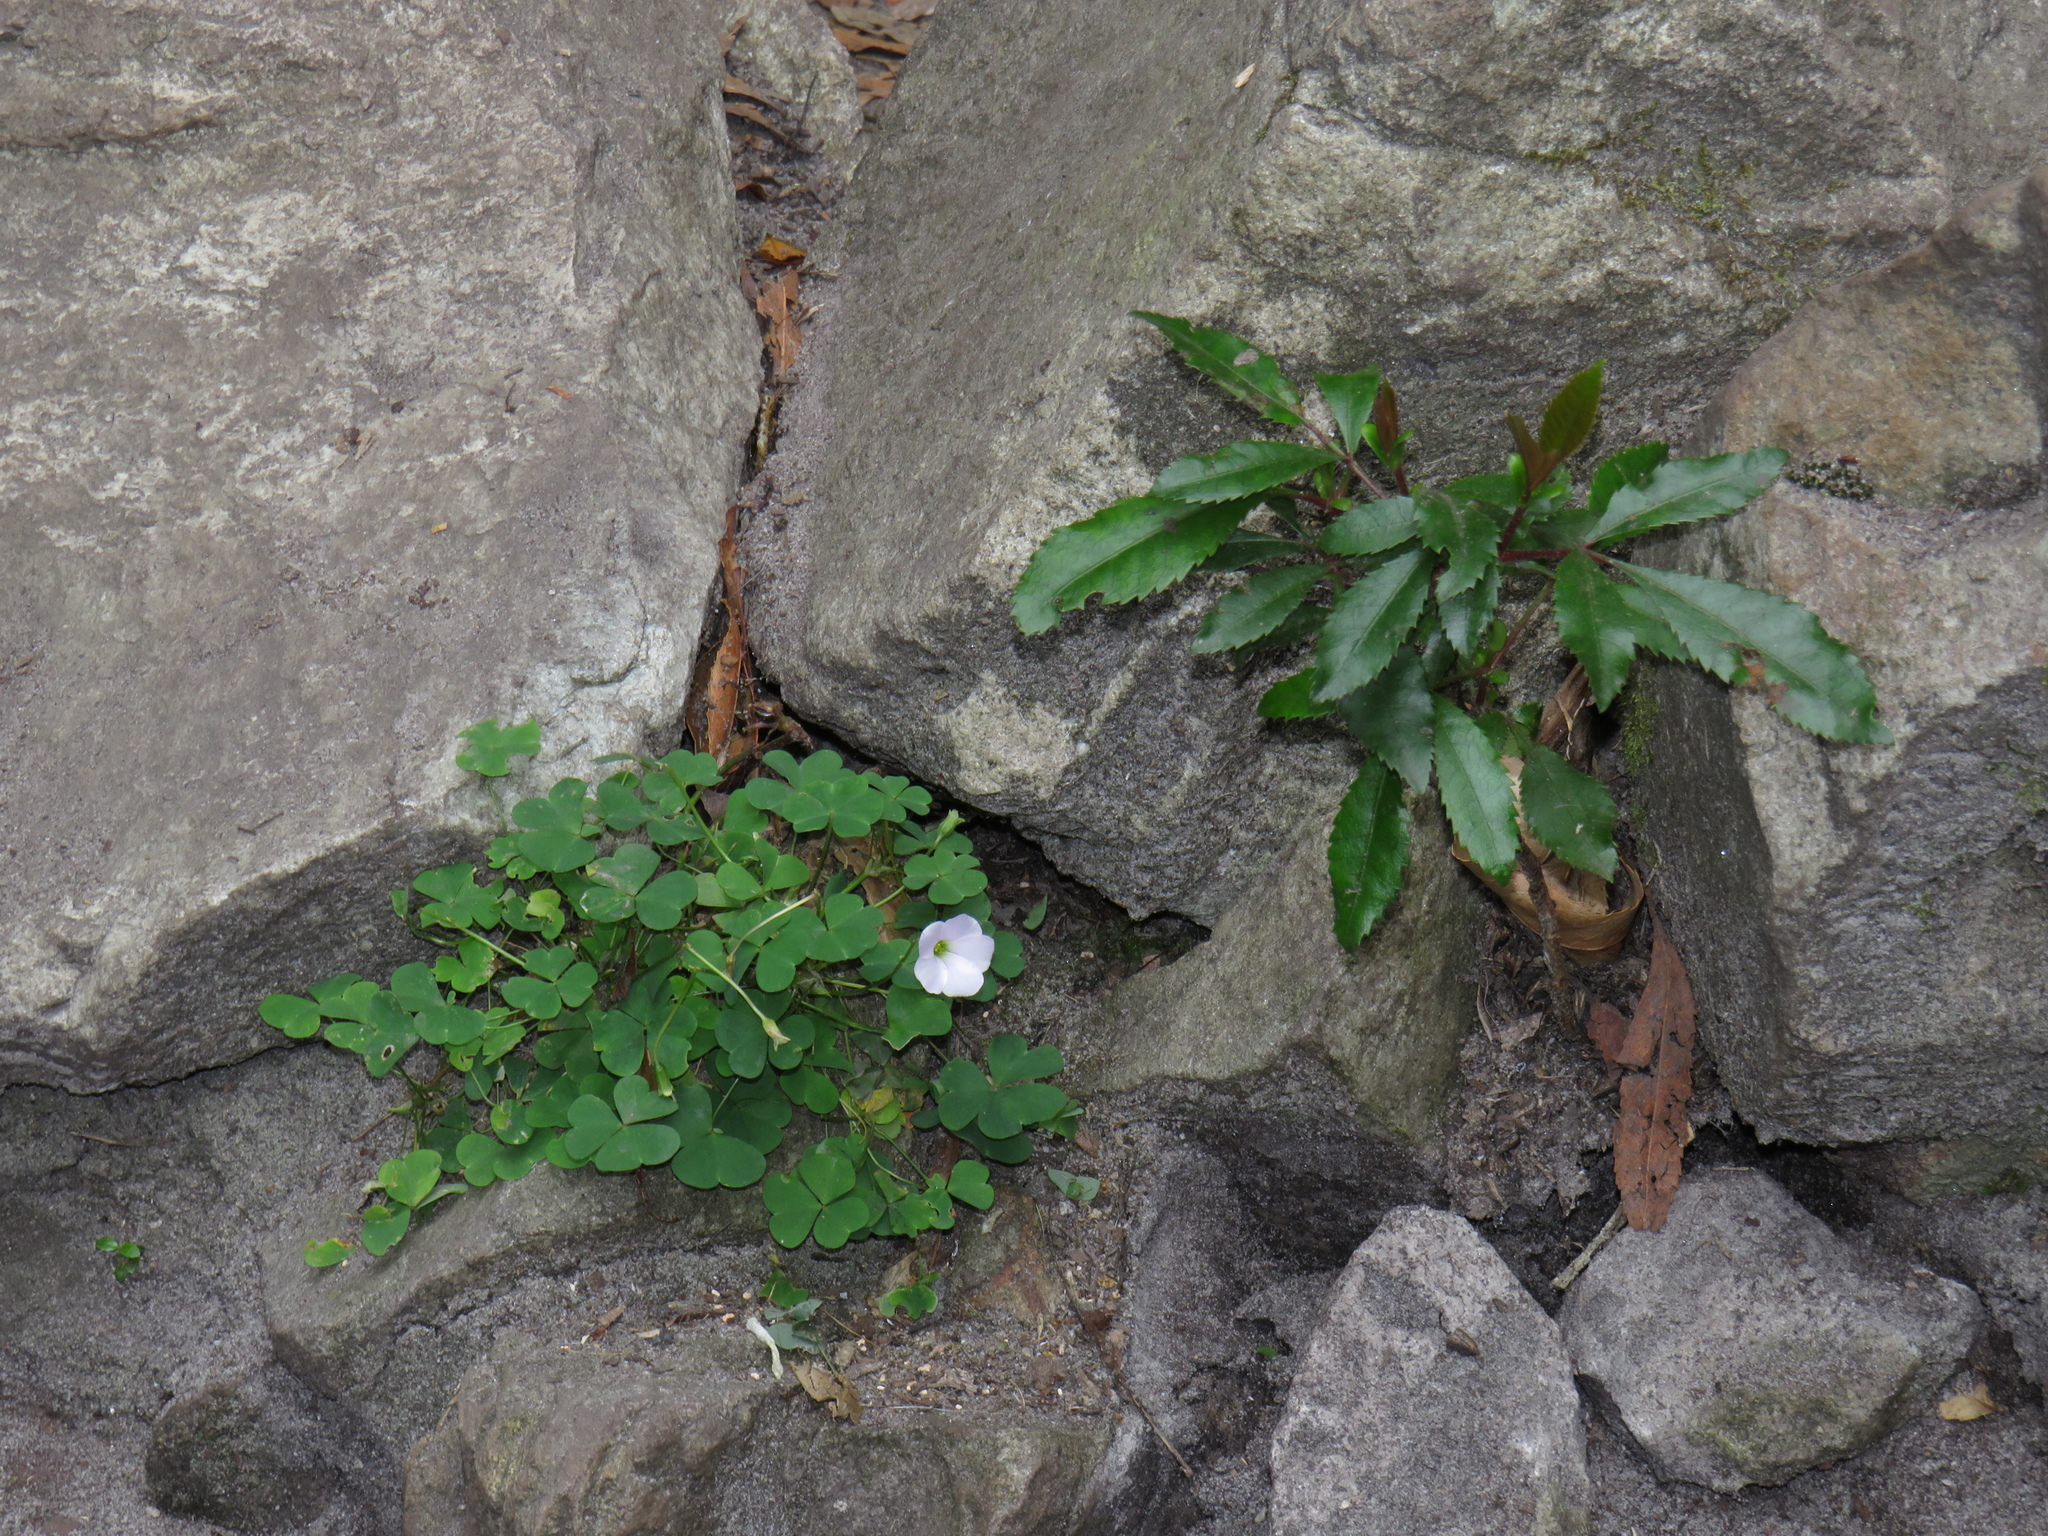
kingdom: Plantae
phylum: Tracheophyta
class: Magnoliopsida
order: Oxalidales
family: Cunoniaceae
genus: Cunonia
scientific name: Cunonia capensis
